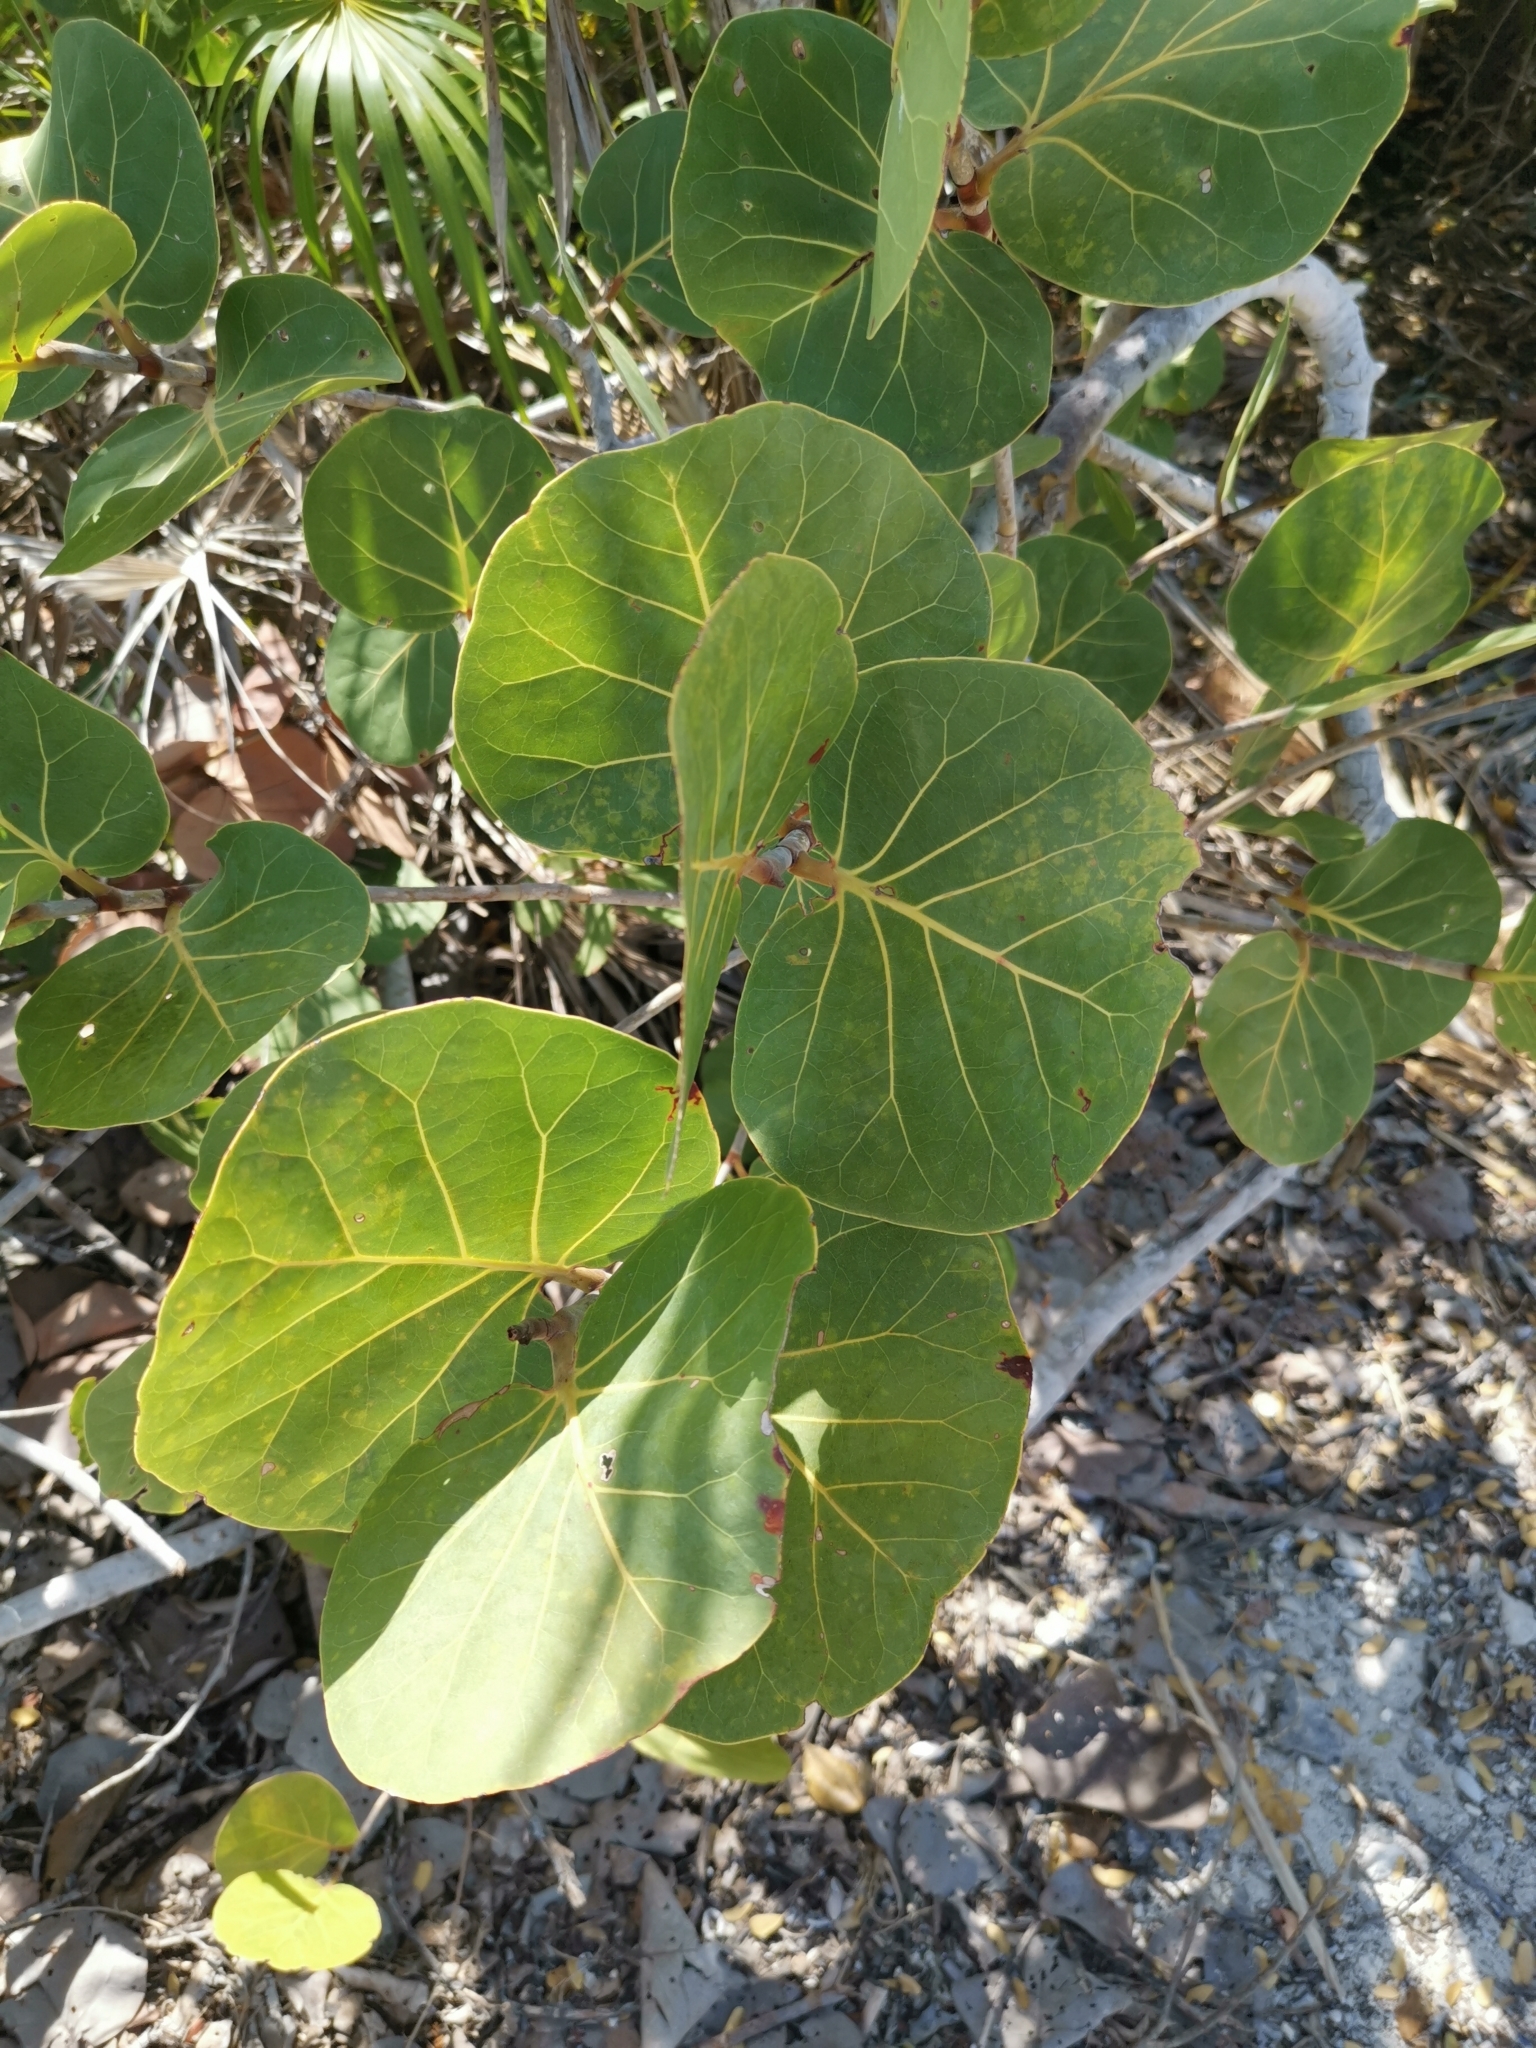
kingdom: Plantae
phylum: Tracheophyta
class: Magnoliopsida
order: Caryophyllales
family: Polygonaceae
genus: Coccoloba
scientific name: Coccoloba uvifera
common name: Seagrape
